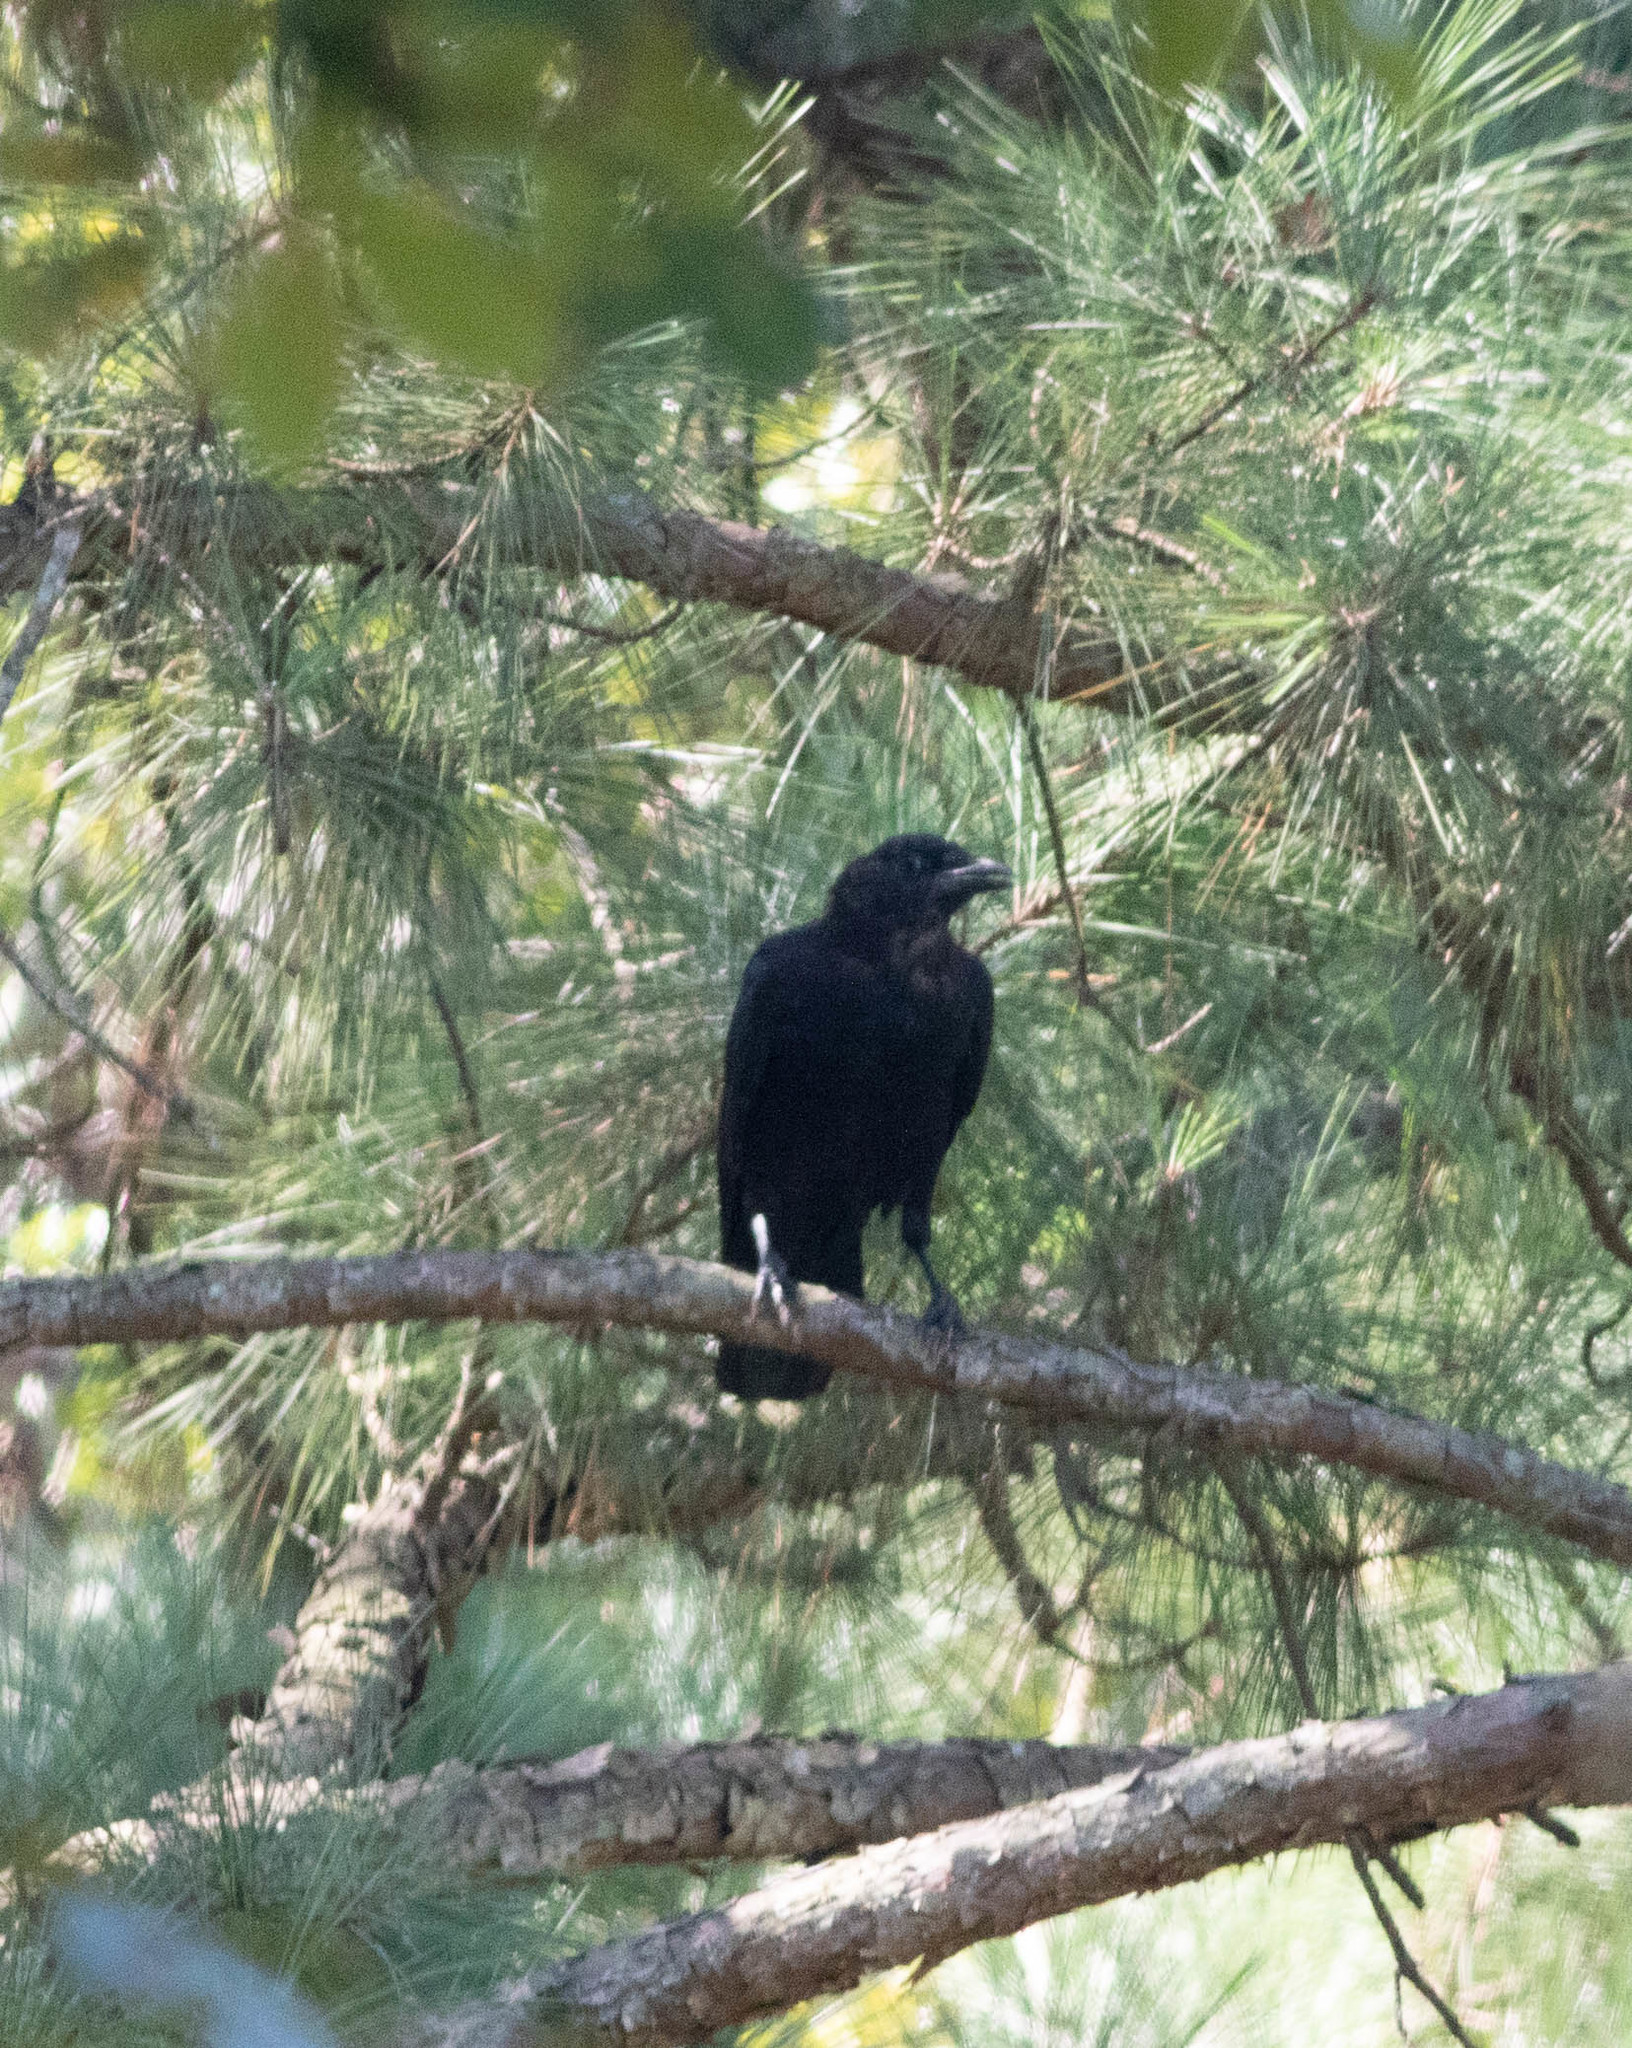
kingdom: Animalia
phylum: Chordata
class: Aves
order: Passeriformes
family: Corvidae
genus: Corvus
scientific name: Corvus brachyrhynchos
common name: American crow
